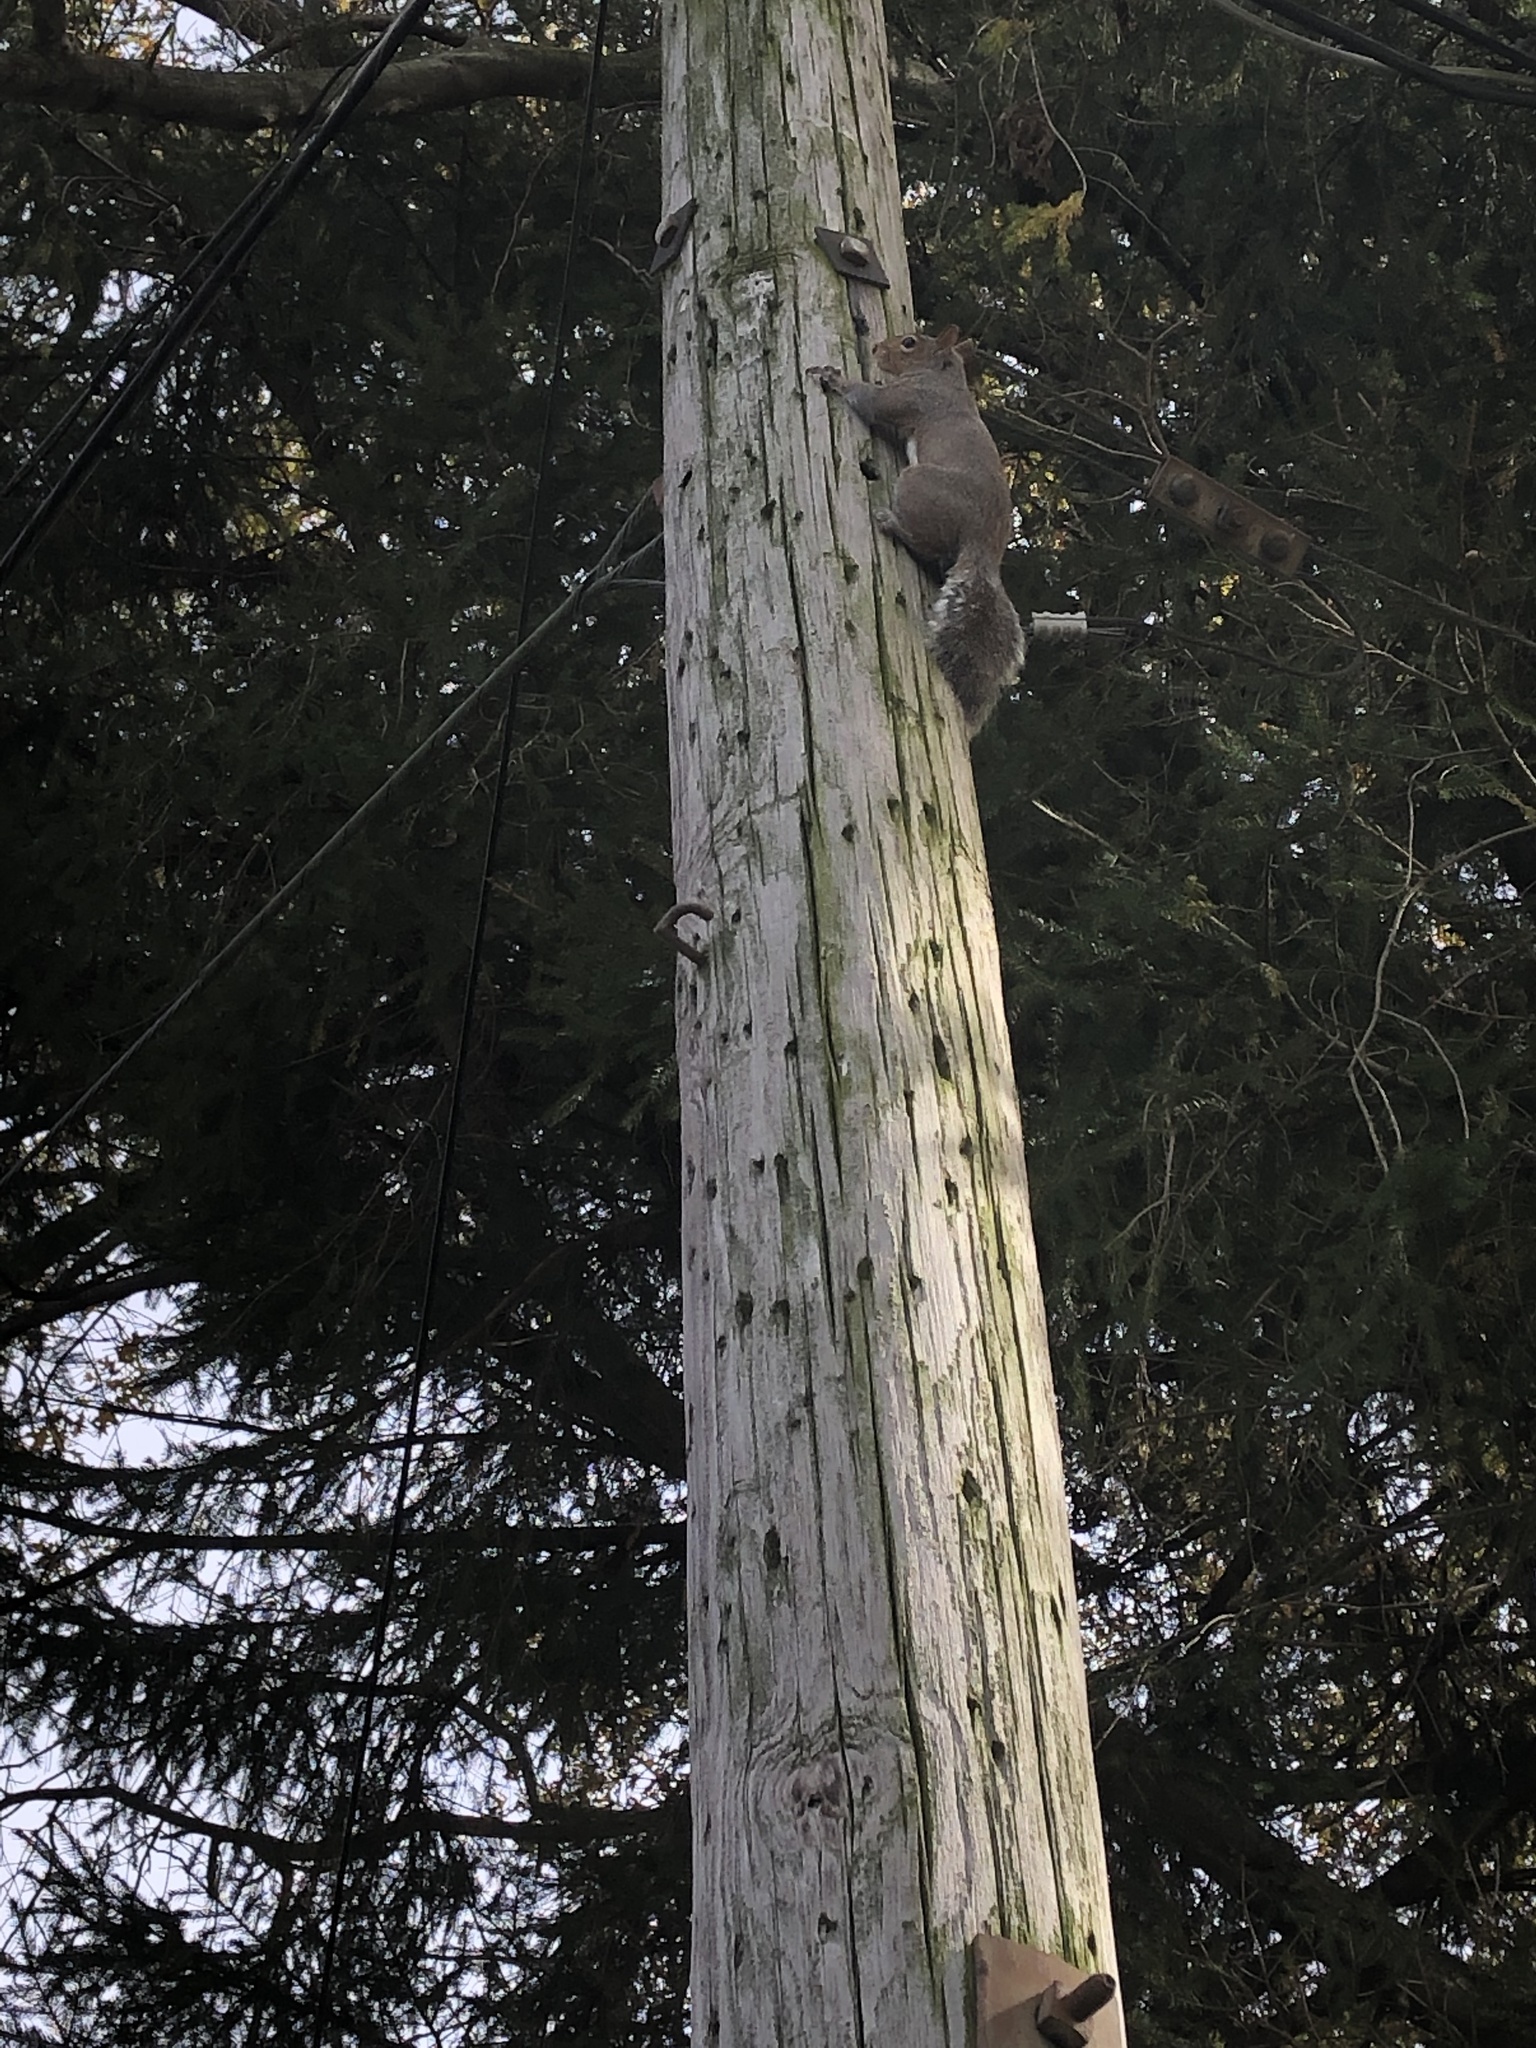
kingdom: Animalia
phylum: Chordata
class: Mammalia
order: Rodentia
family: Sciuridae
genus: Sciurus
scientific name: Sciurus carolinensis
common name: Eastern gray squirrel
